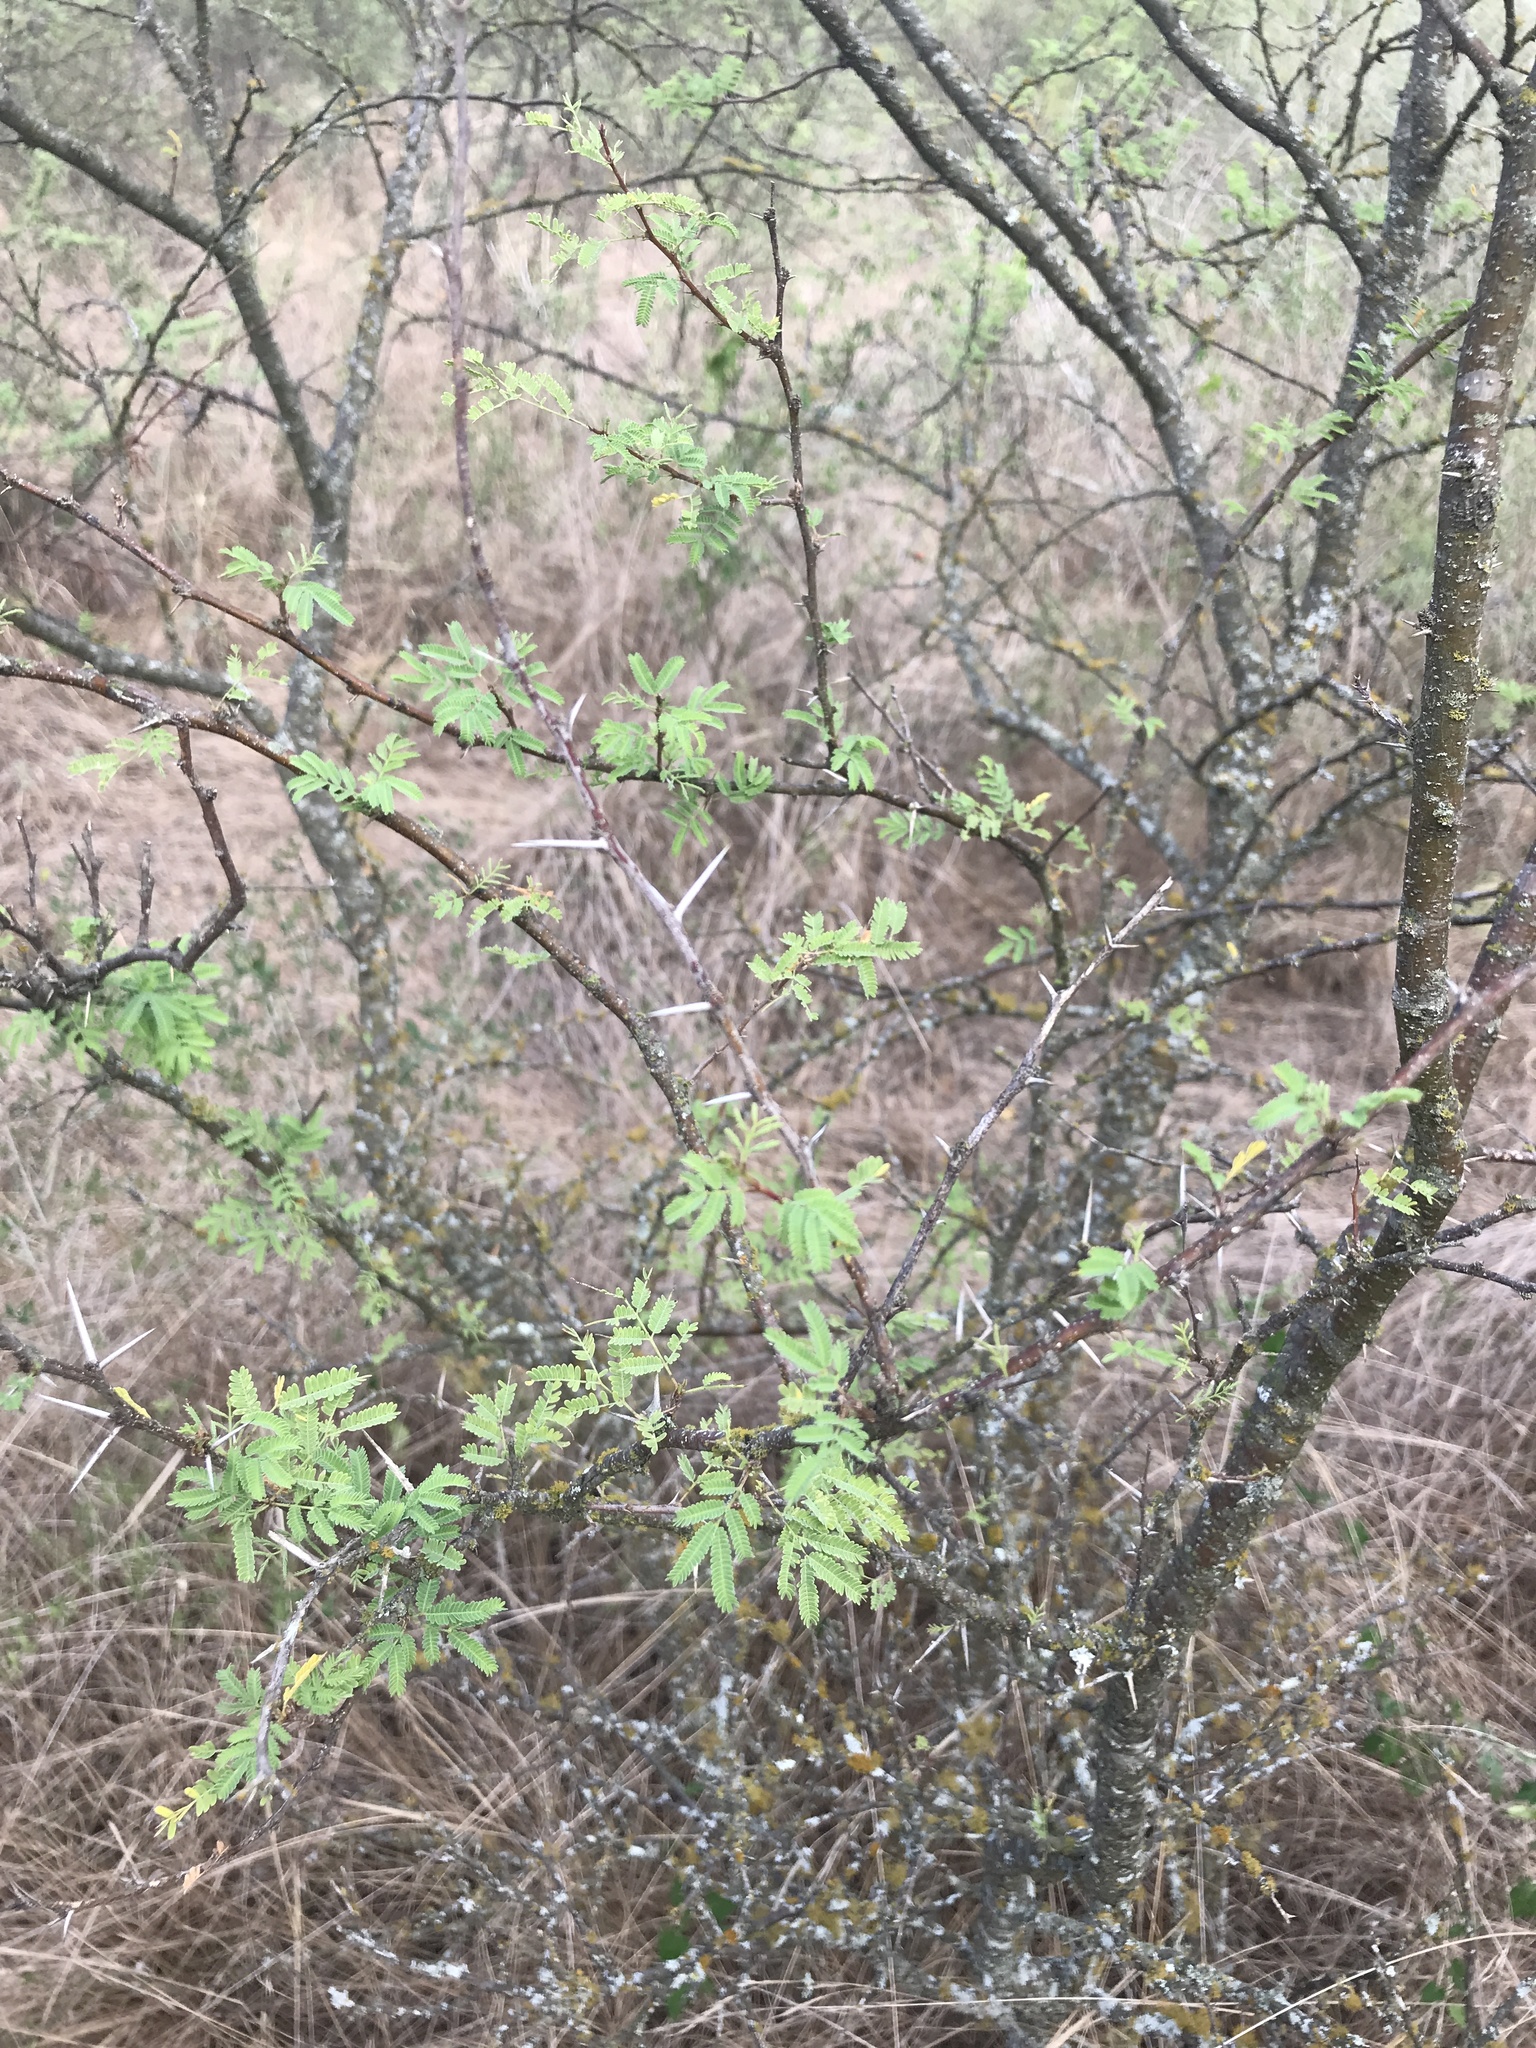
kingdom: Plantae
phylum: Tracheophyta
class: Magnoliopsida
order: Fabales
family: Fabaceae
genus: Vachellia
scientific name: Vachellia farnesiana
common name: Sweet acacia
